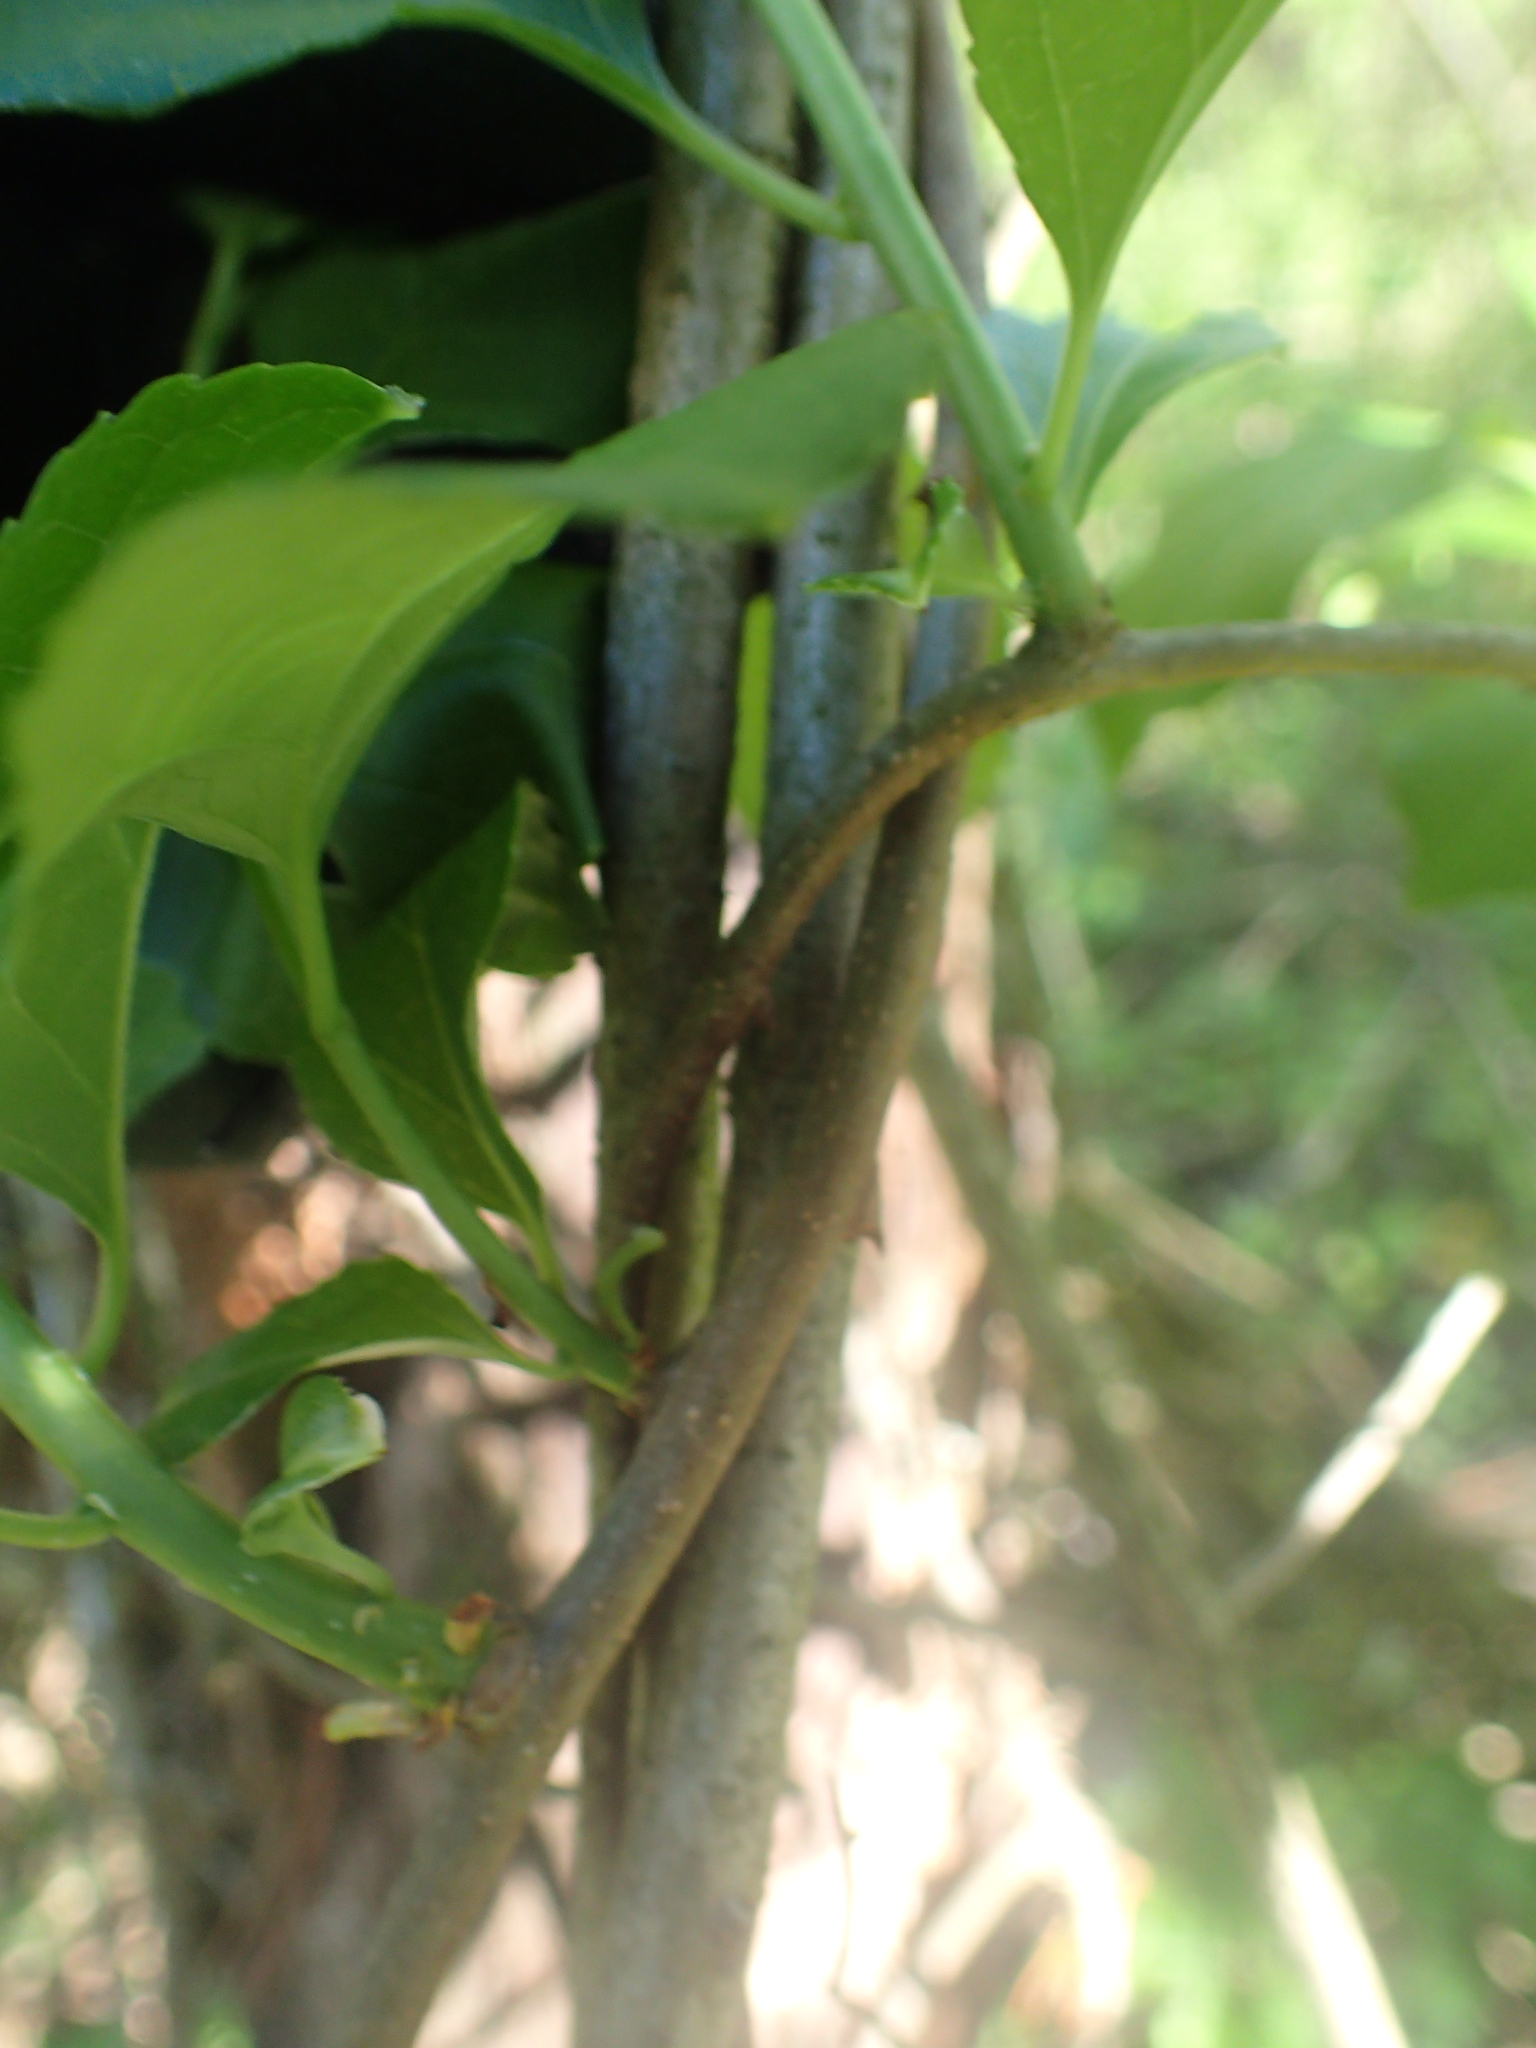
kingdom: Plantae
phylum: Tracheophyta
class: Magnoliopsida
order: Celastrales
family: Celastraceae
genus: Celastrus
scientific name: Celastrus orbiculatus
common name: Oriental bittersweet
